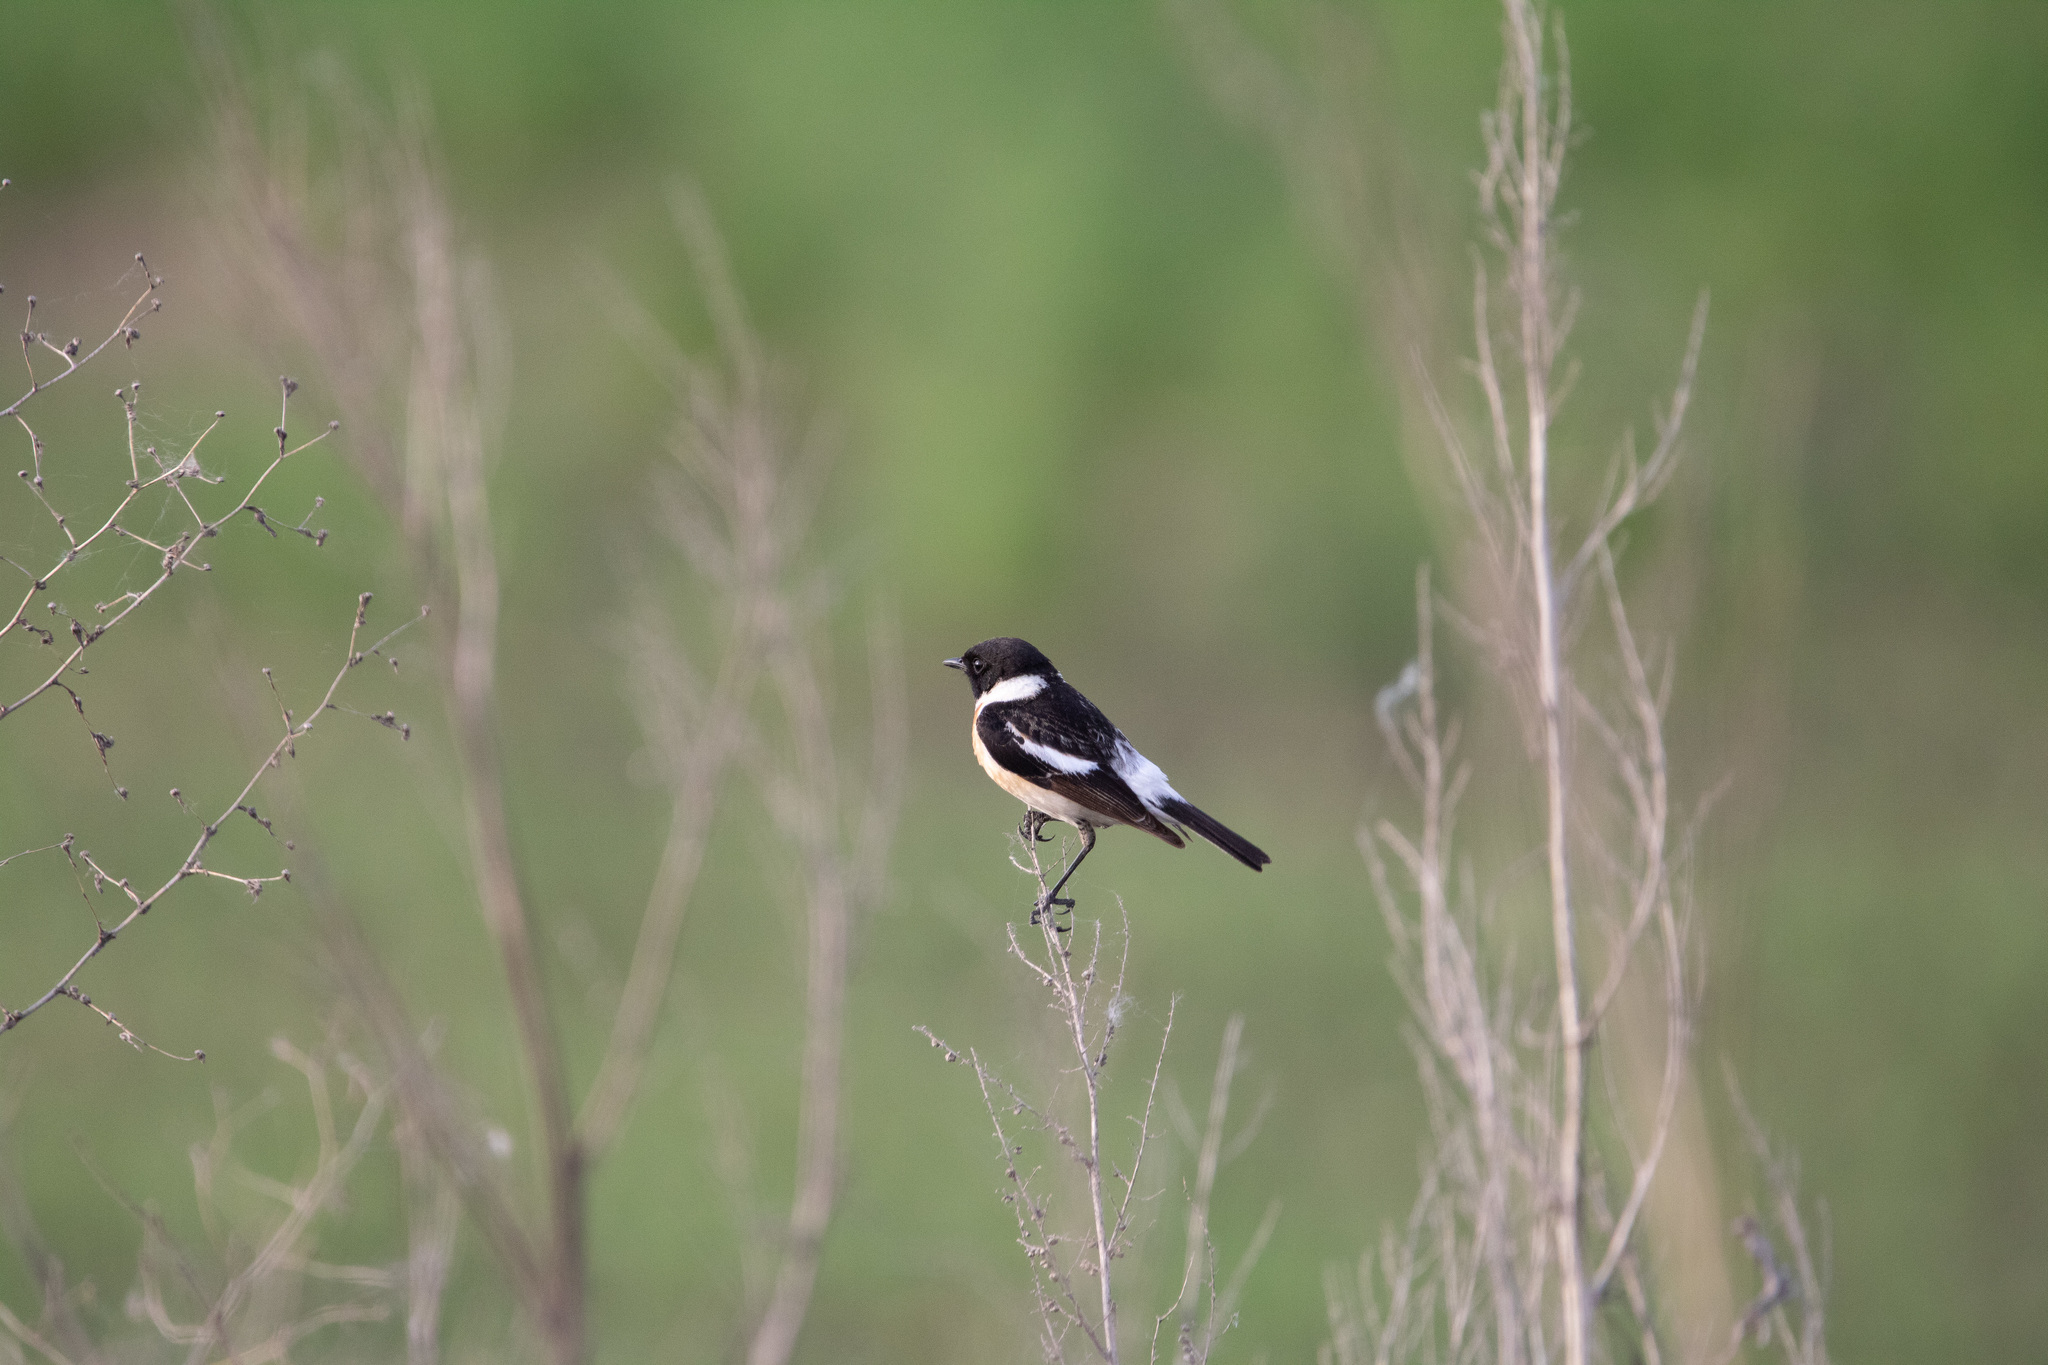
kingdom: Animalia
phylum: Chordata
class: Aves
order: Passeriformes
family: Muscicapidae
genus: Saxicola
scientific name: Saxicola maurus
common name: Siberian stonechat
